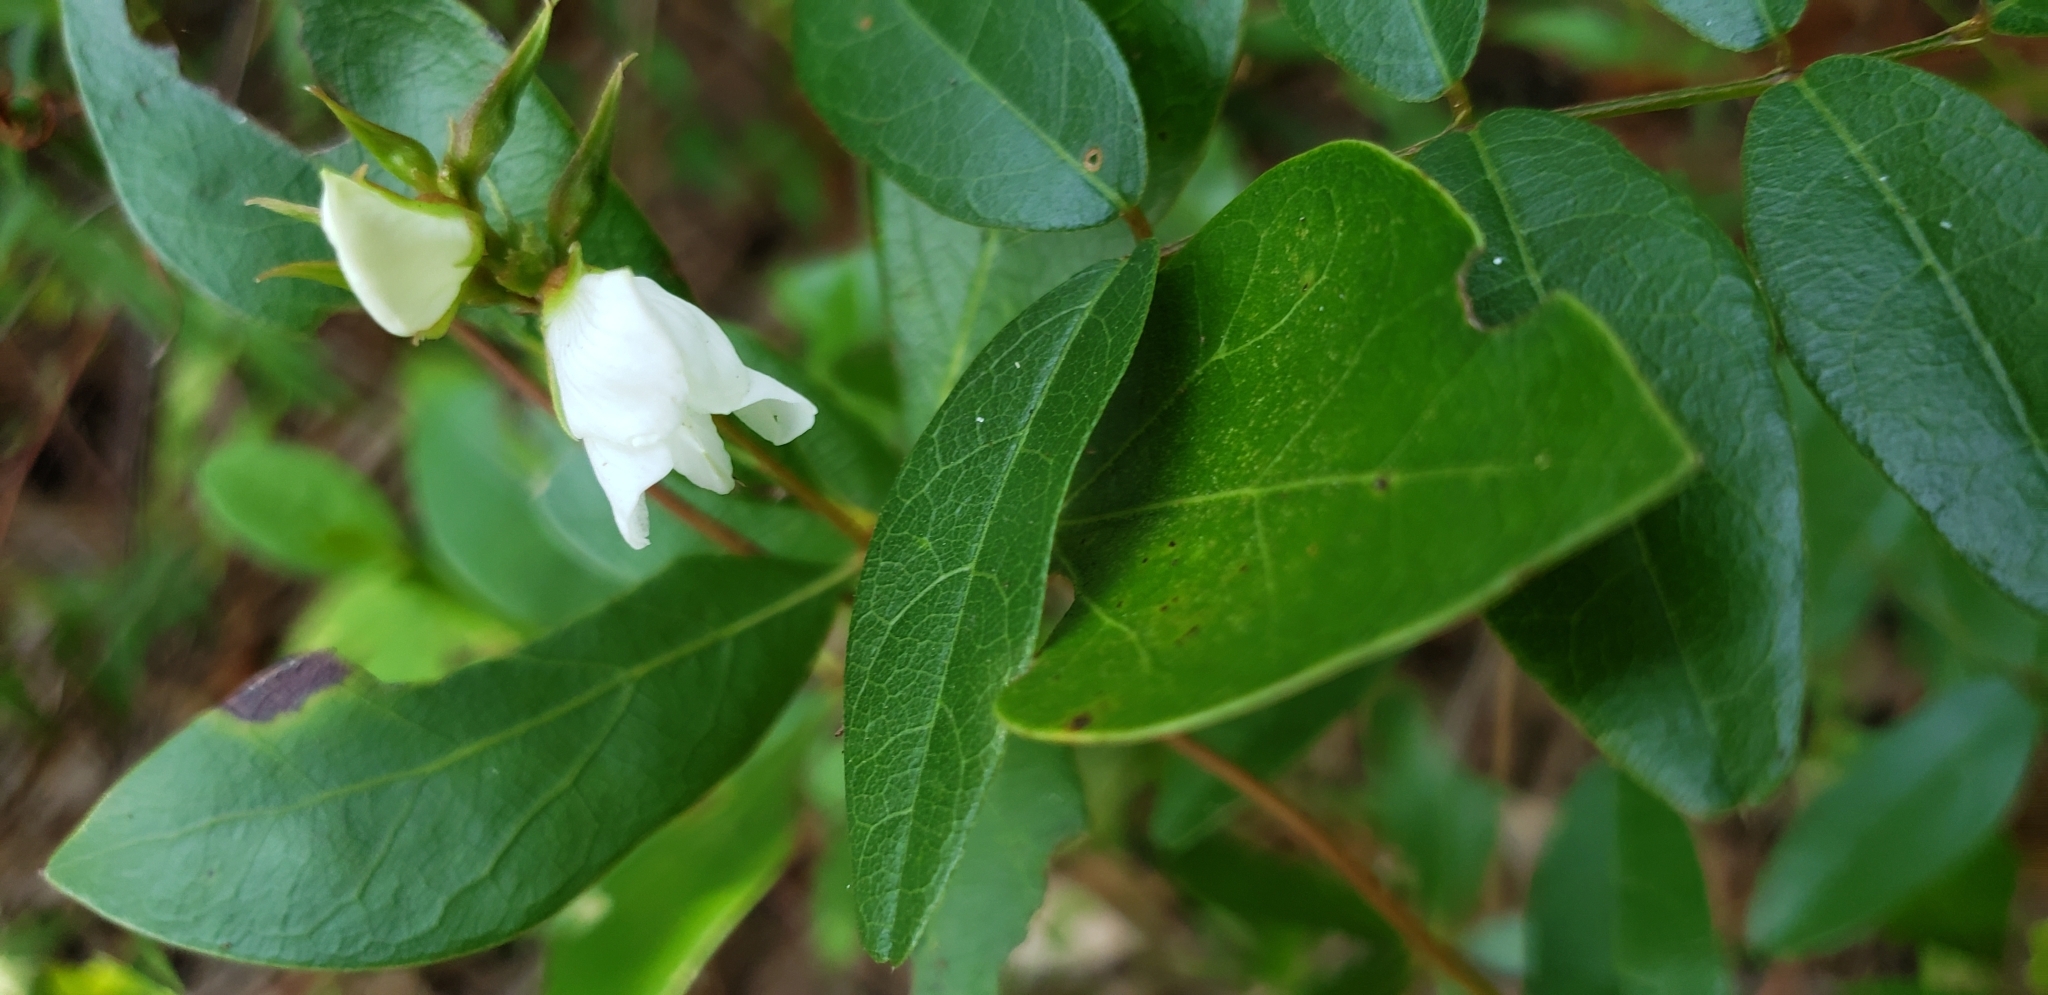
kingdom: Plantae
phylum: Tracheophyta
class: Magnoliopsida
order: Fabales
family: Fabaceae
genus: Galactia
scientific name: Galactia elliottii
